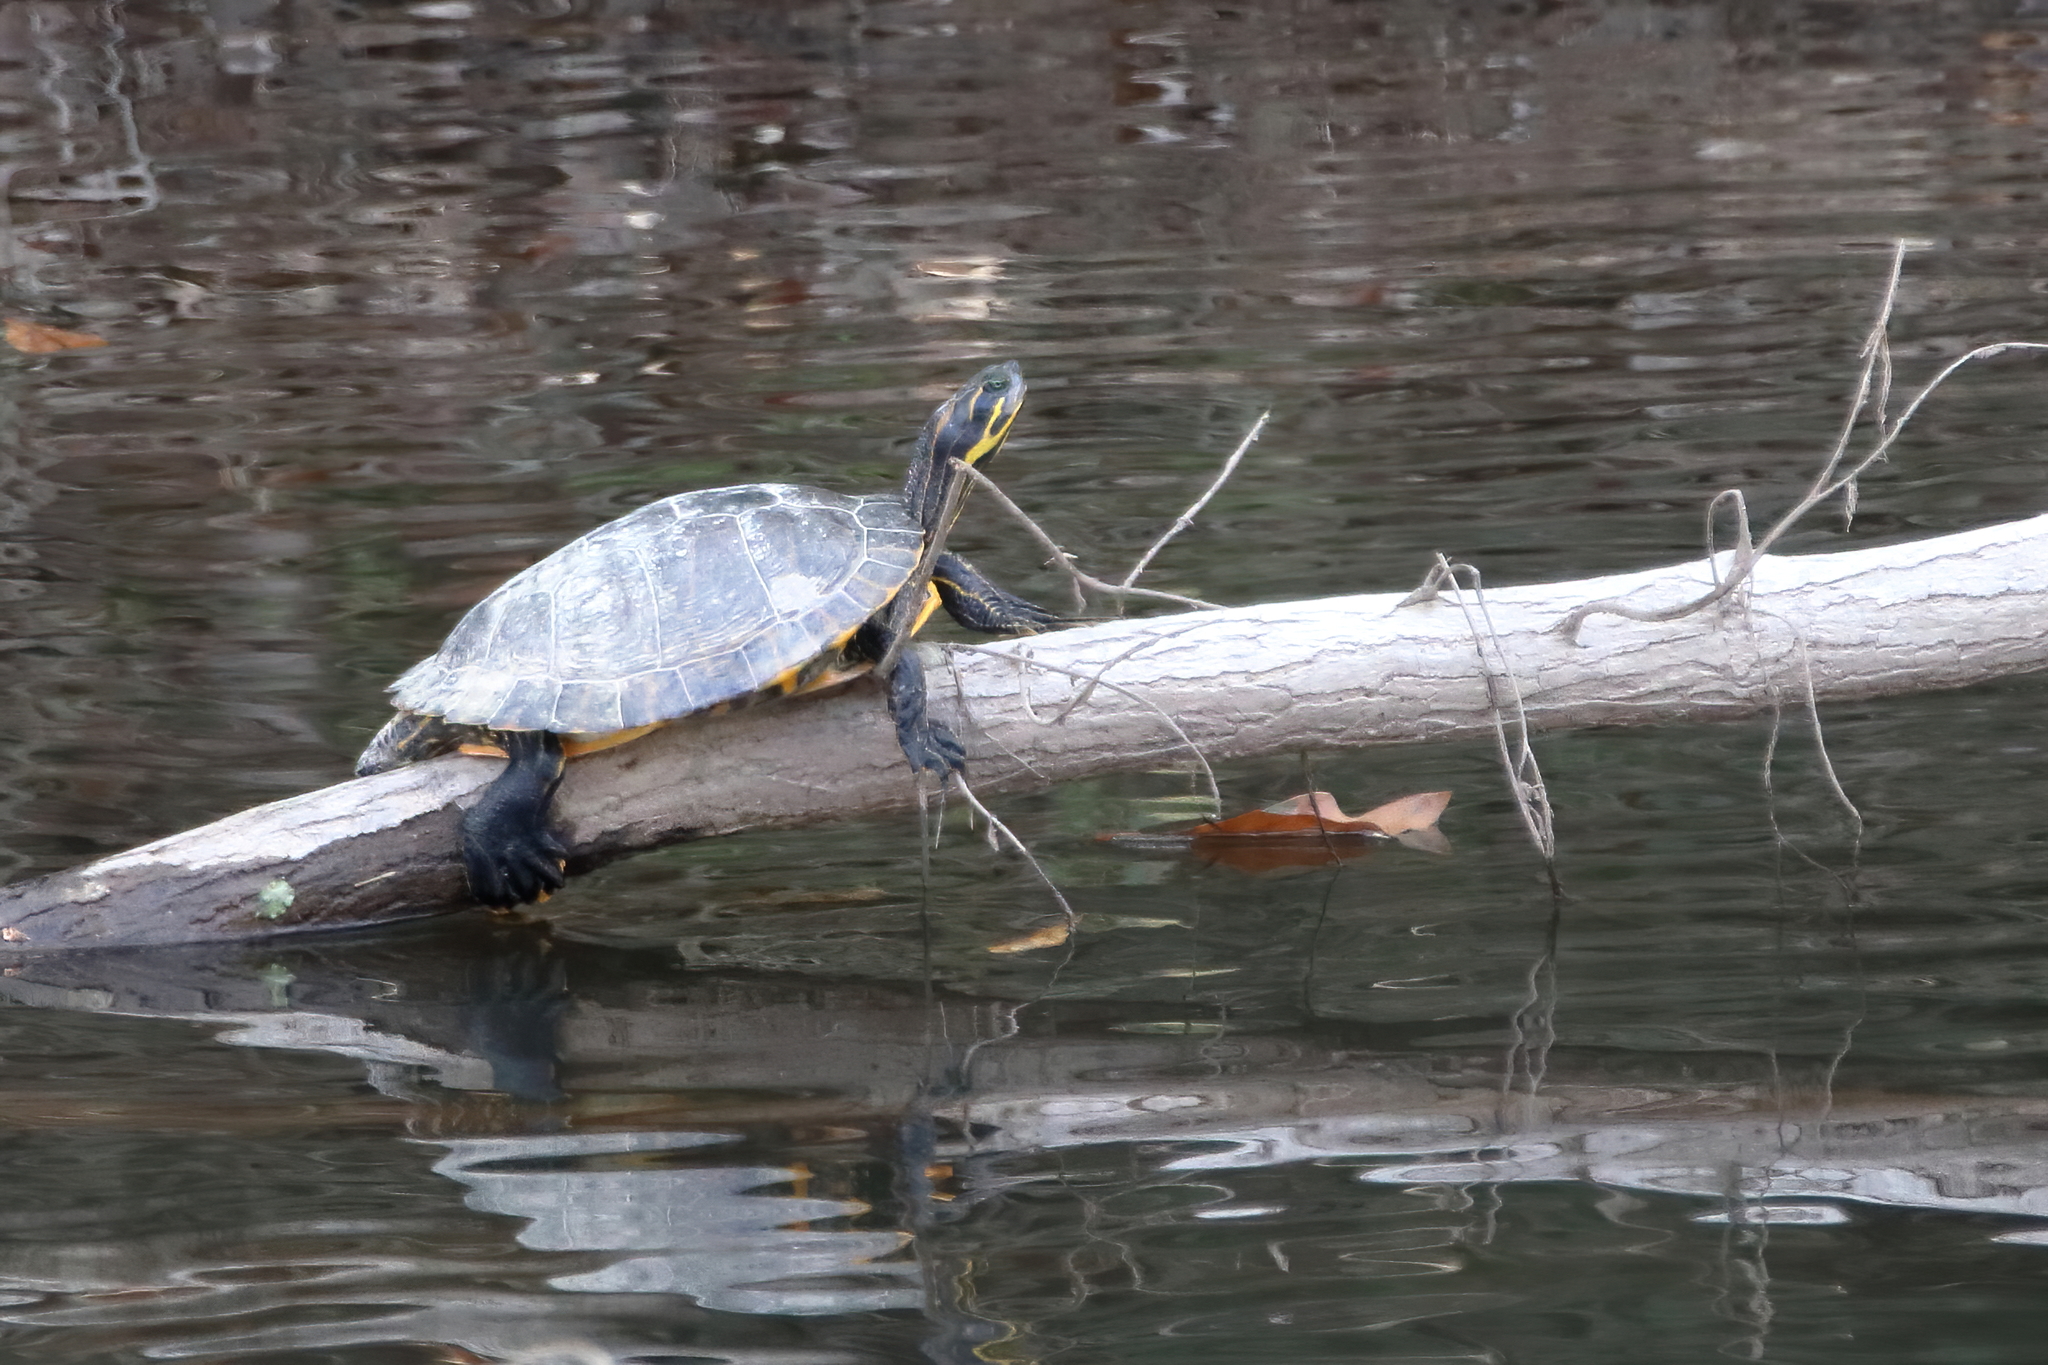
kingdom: Animalia
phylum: Chordata
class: Testudines
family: Emydidae
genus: Pseudemys
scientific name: Pseudemys concinna
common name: Eastern river cooter
